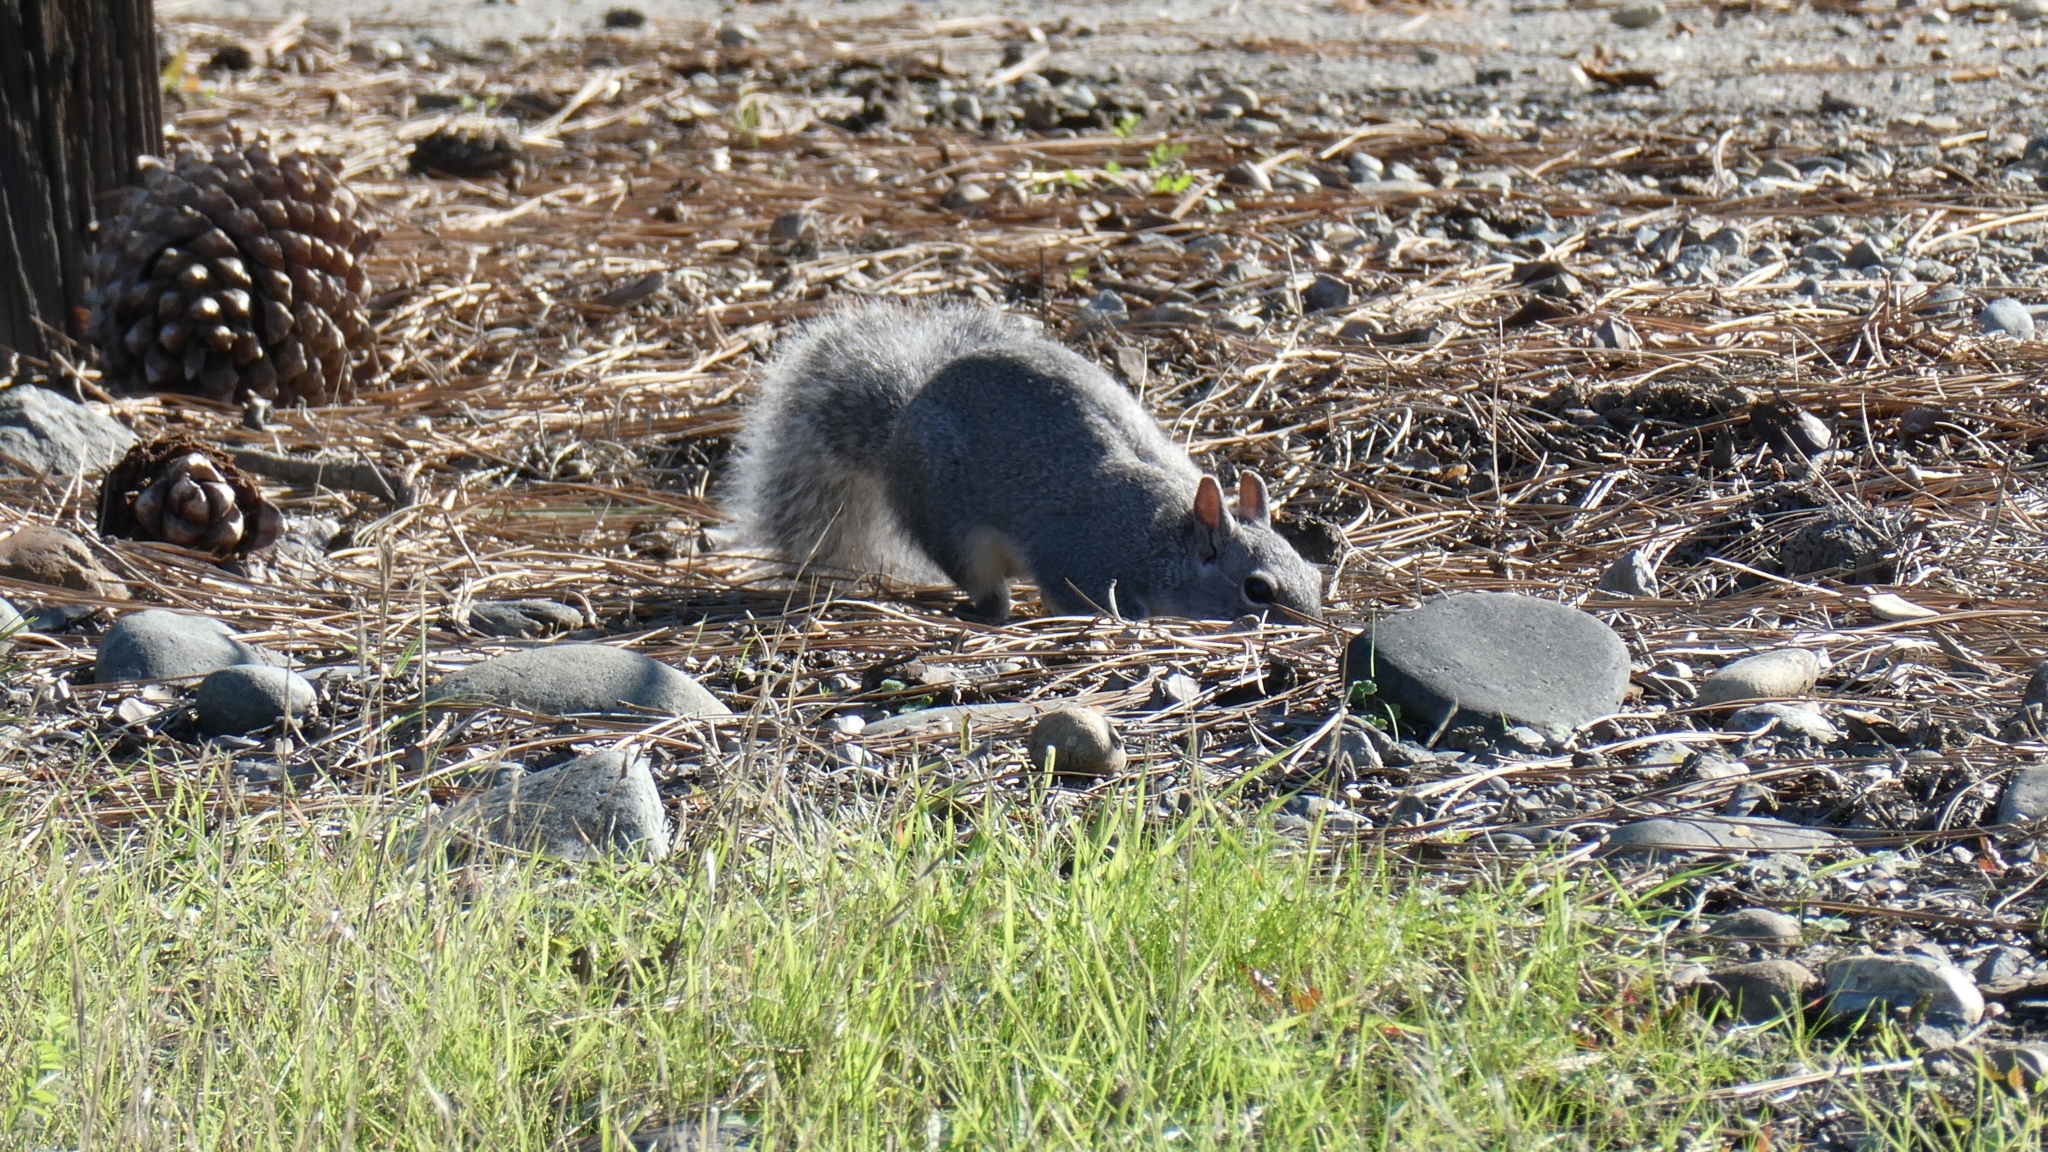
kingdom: Animalia
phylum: Chordata
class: Mammalia
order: Rodentia
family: Sciuridae
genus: Sciurus
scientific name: Sciurus griseus
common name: Western gray squirrel
